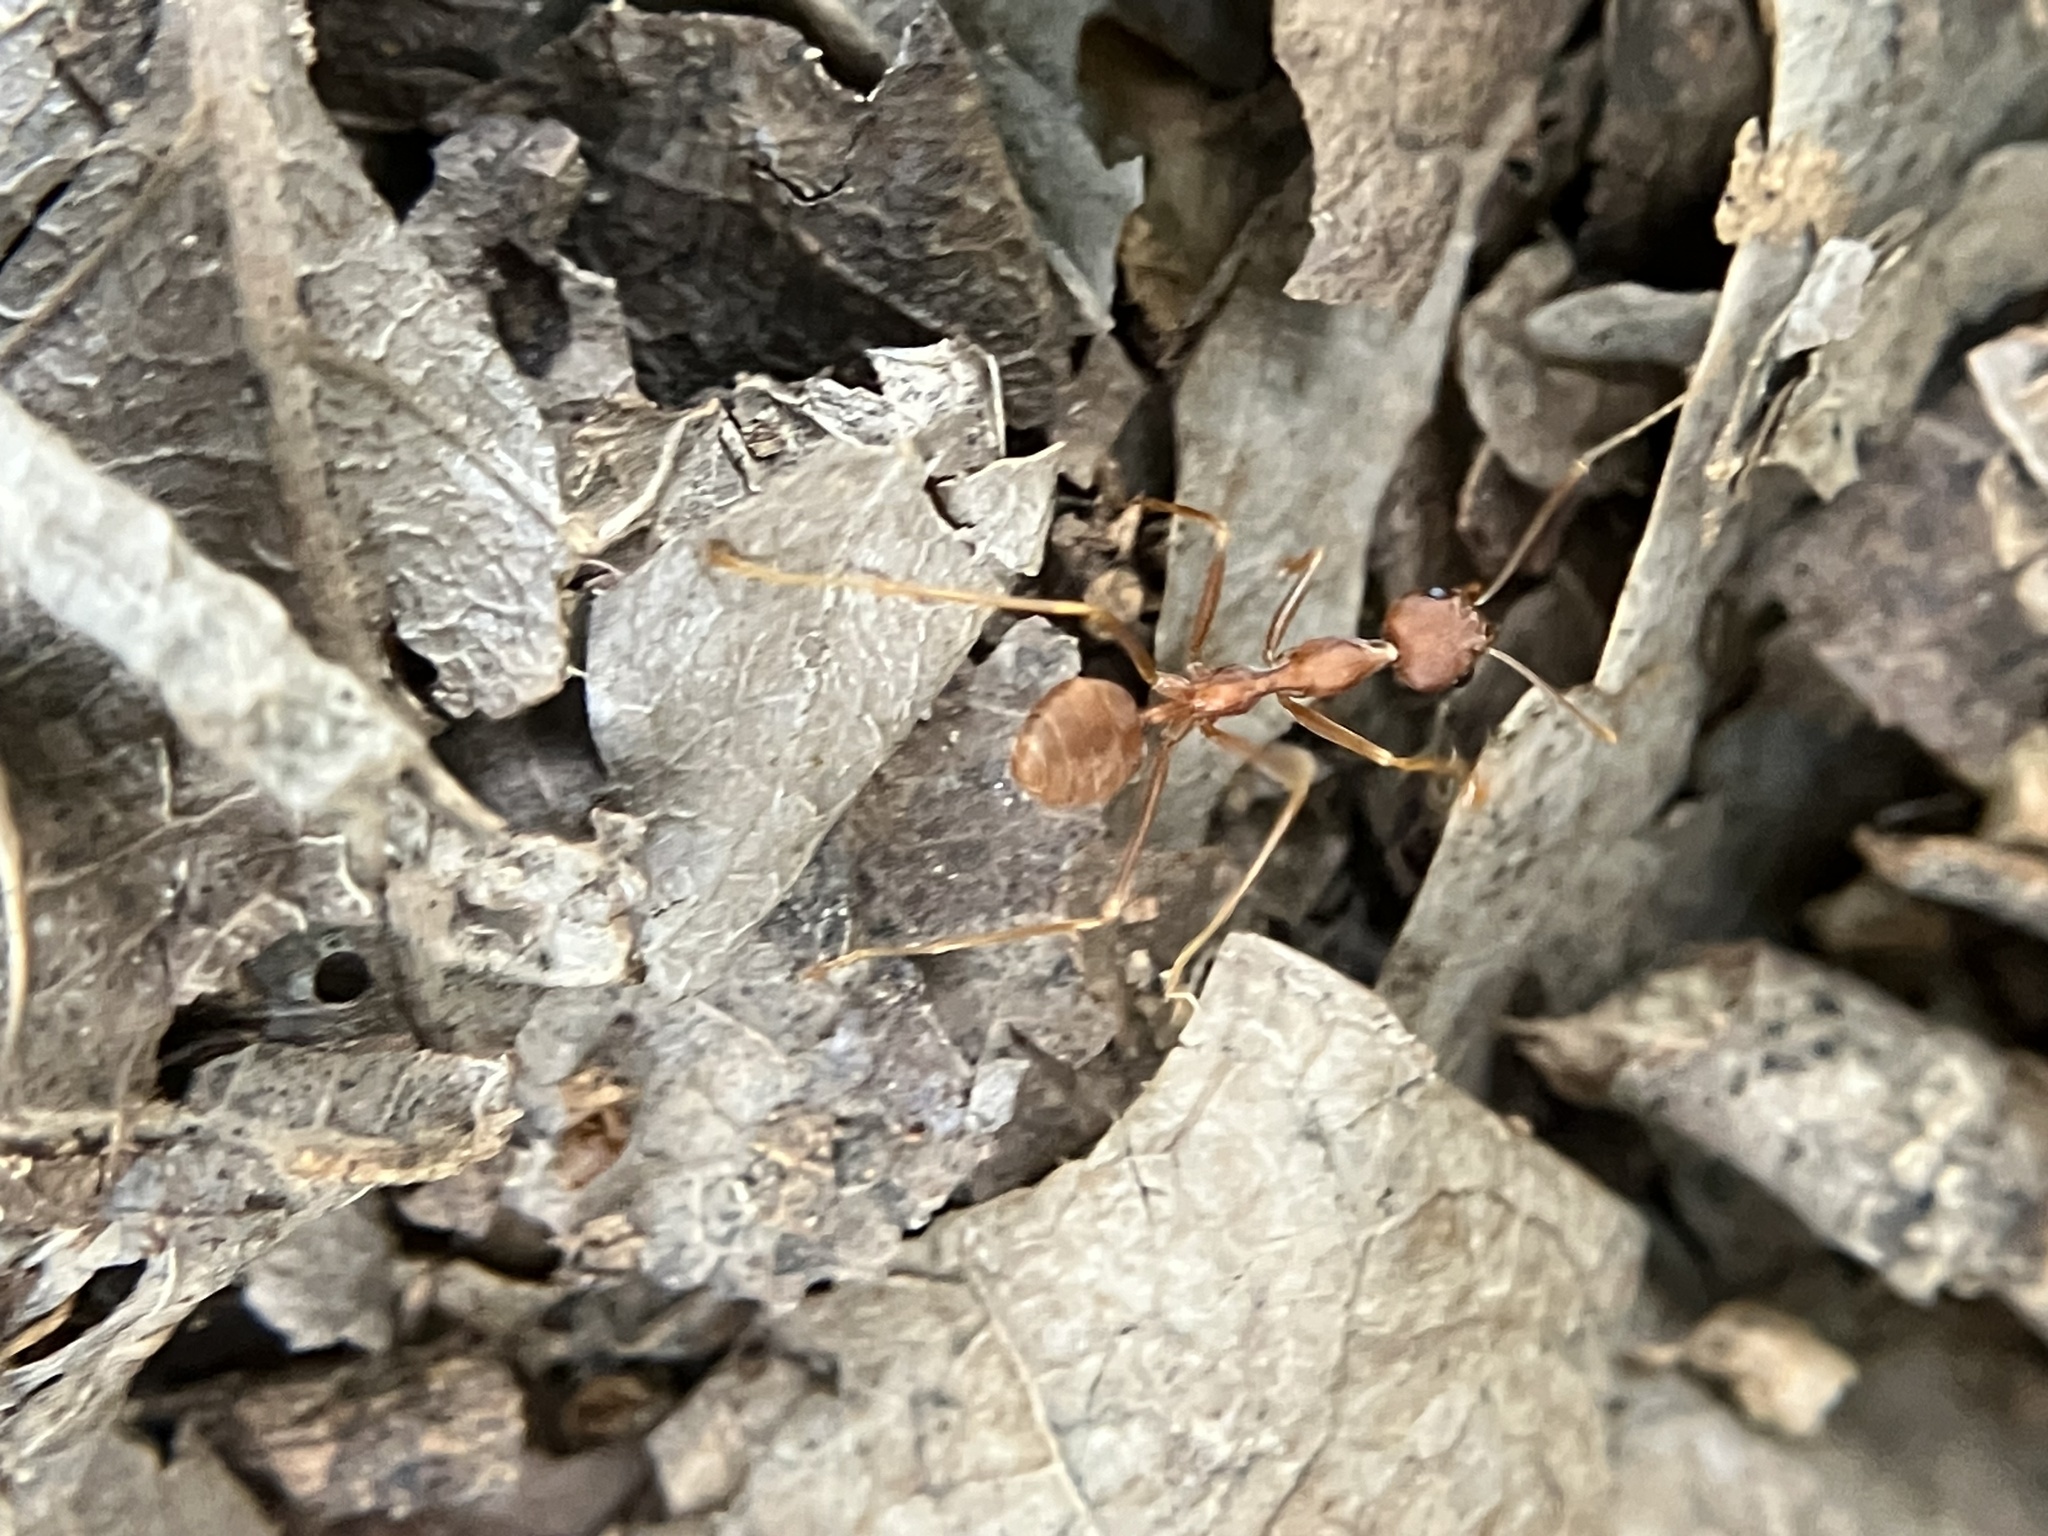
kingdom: Animalia
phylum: Arthropoda
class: Insecta
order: Hymenoptera
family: Formicidae
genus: Oecophylla
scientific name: Oecophylla smaragdina
